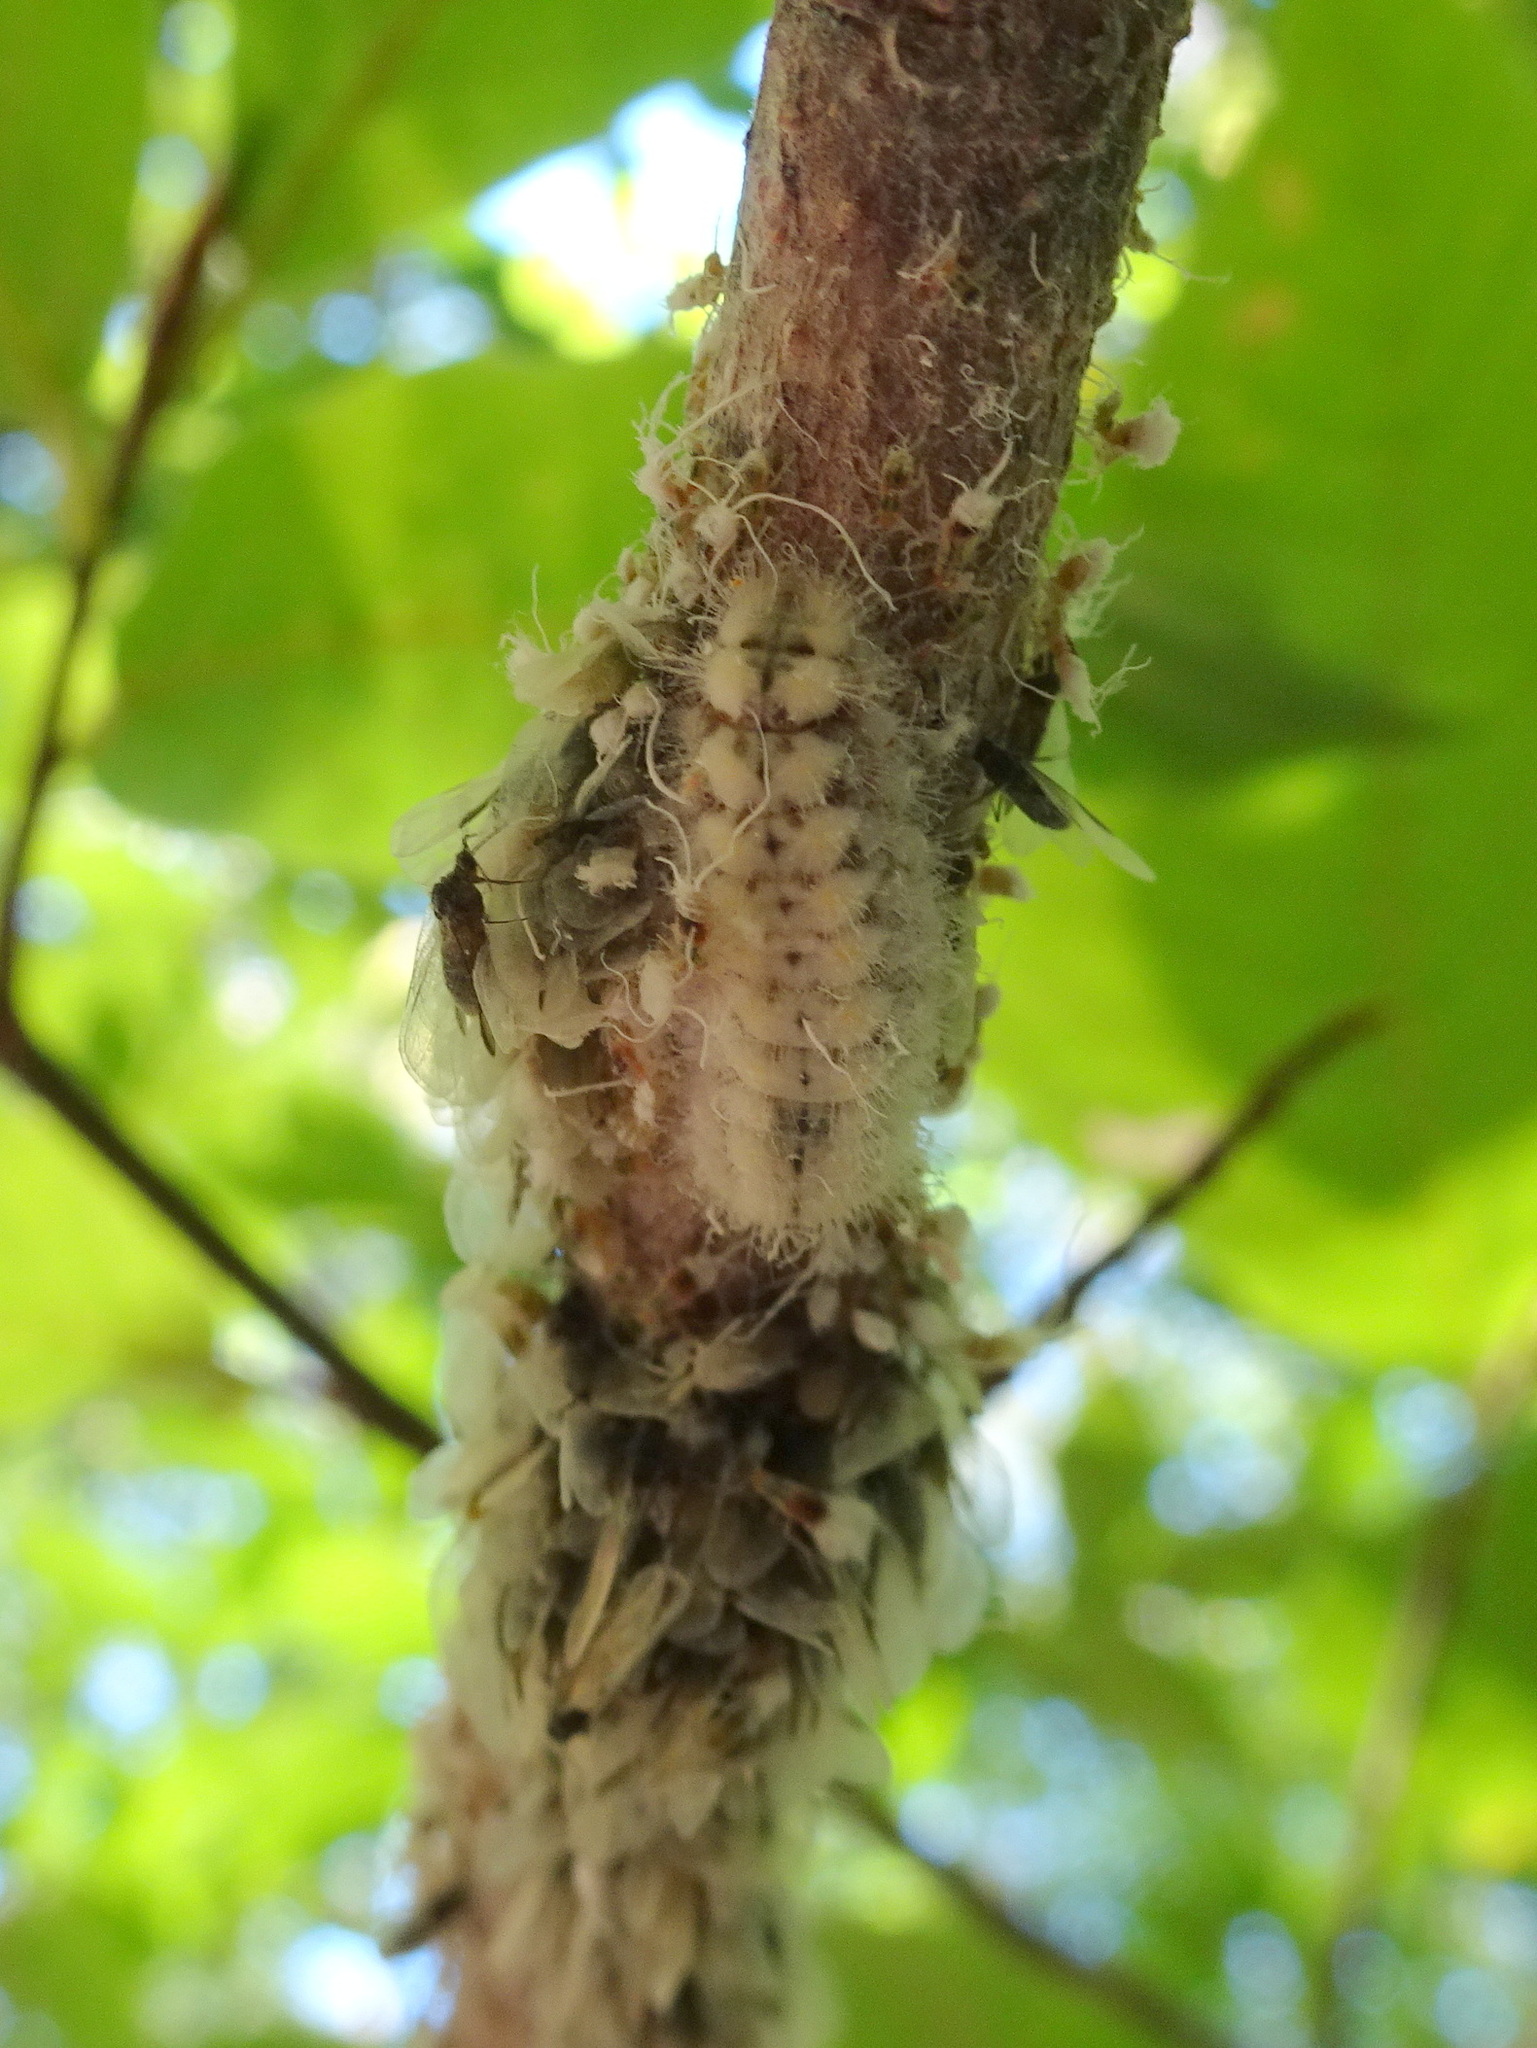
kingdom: Animalia
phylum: Arthropoda
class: Insecta
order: Lepidoptera
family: Lycaenidae
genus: Feniseca
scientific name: Feniseca tarquinius
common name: Harvester
